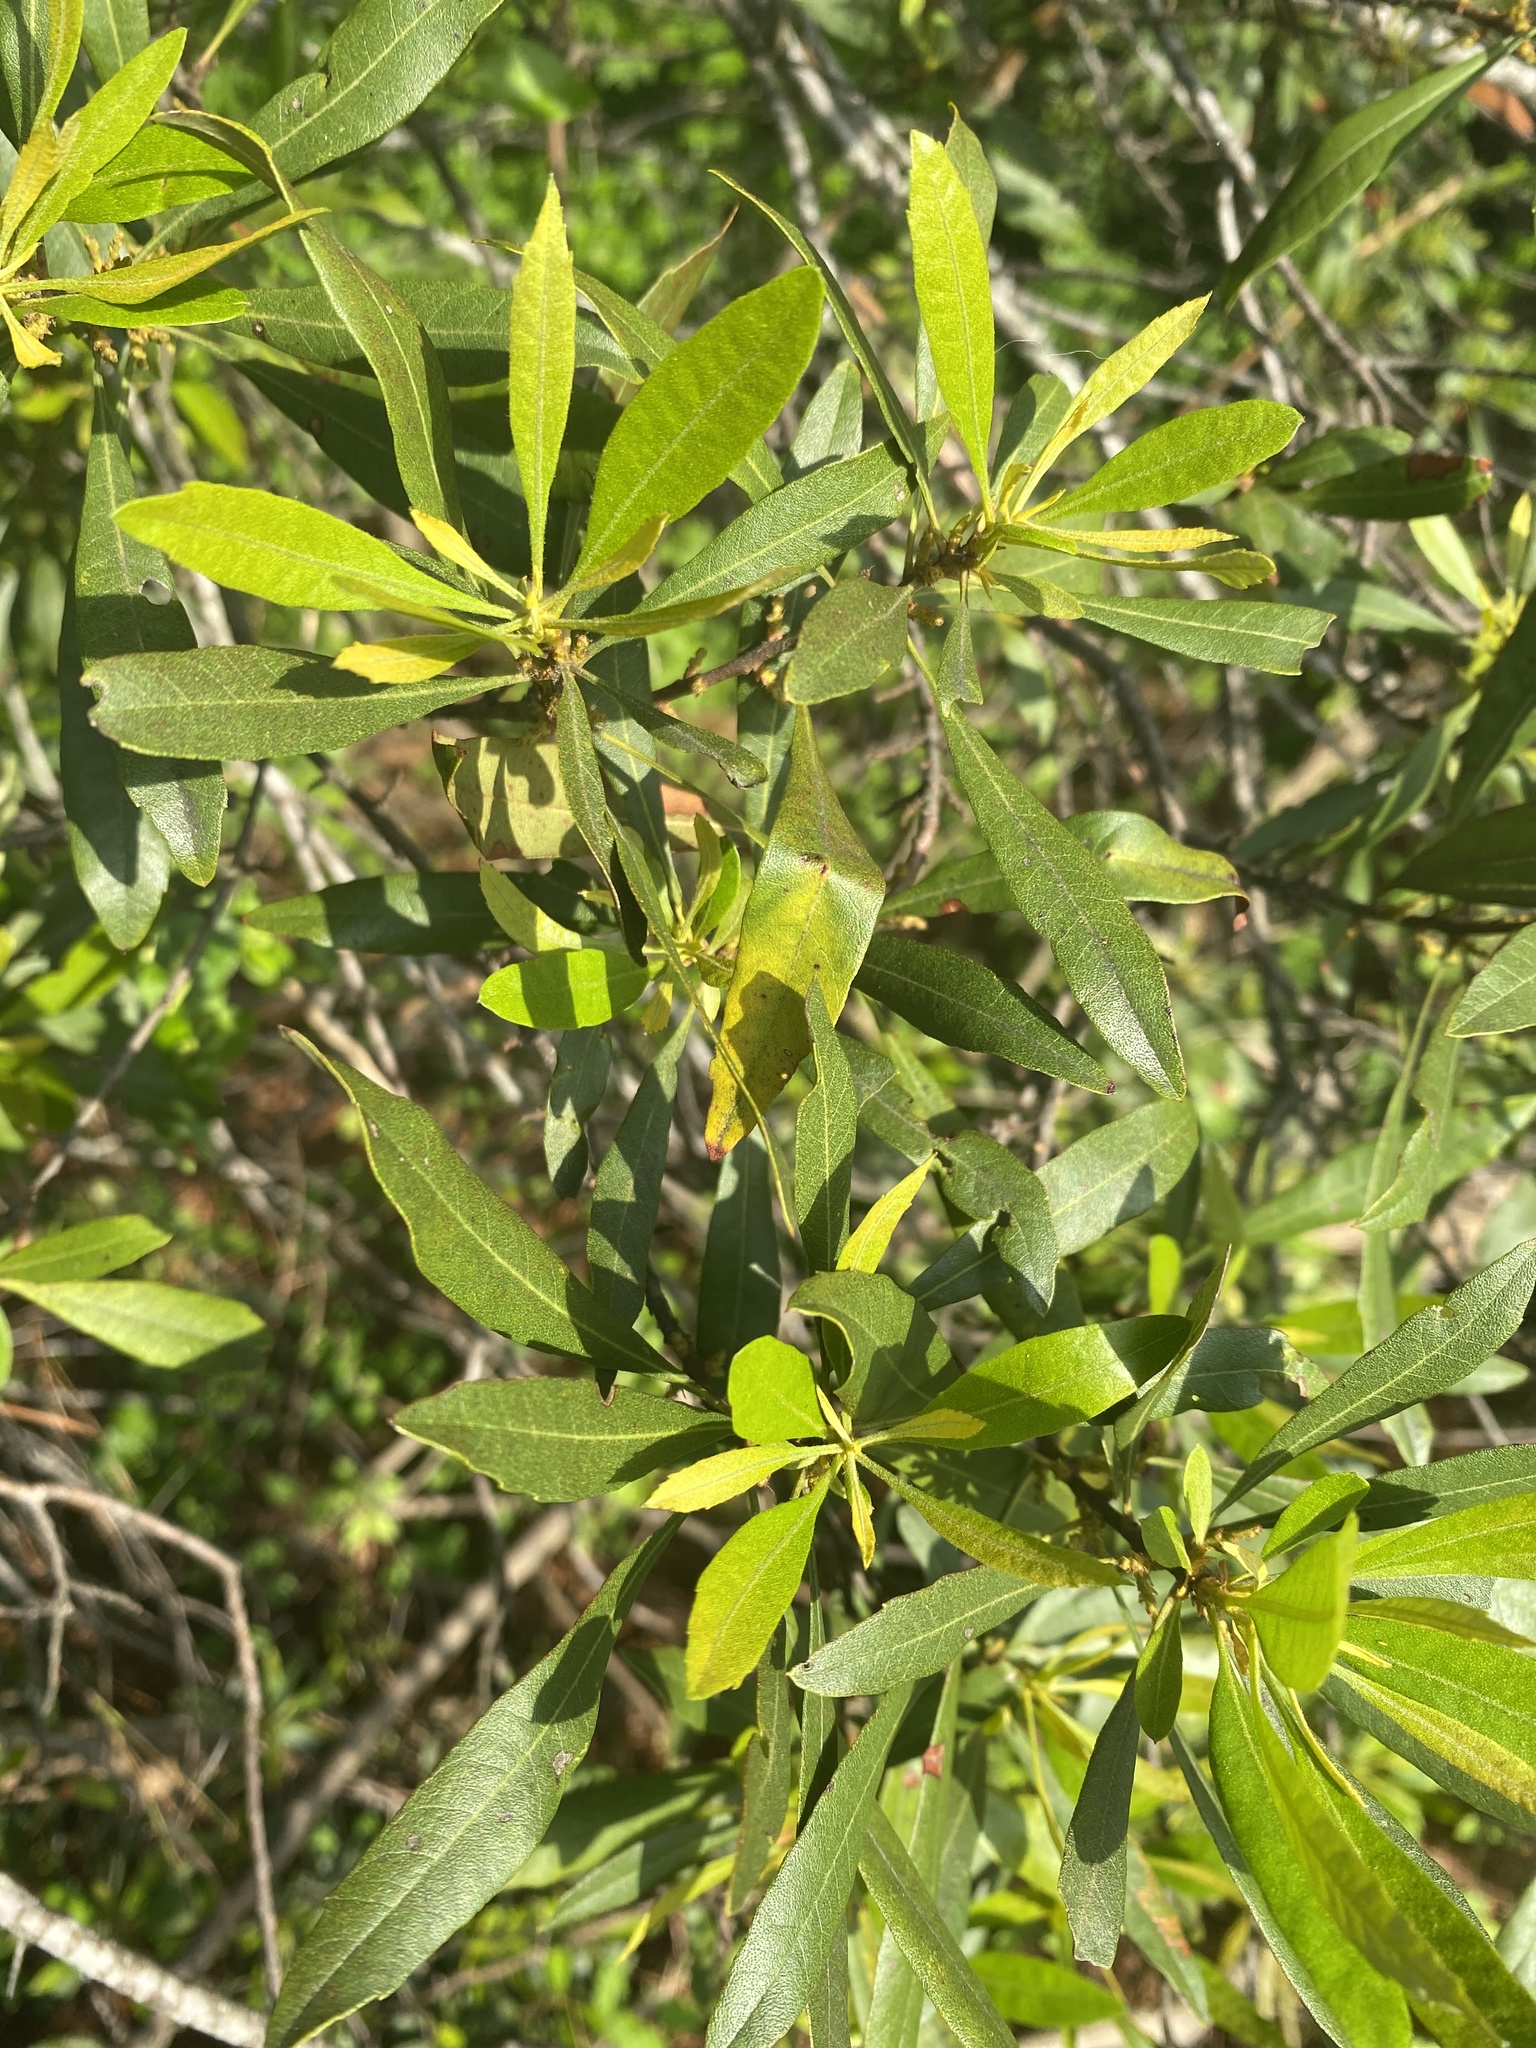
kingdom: Plantae
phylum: Tracheophyta
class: Magnoliopsida
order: Fagales
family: Myricaceae
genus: Morella
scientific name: Morella cerifera
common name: Wax myrtle
